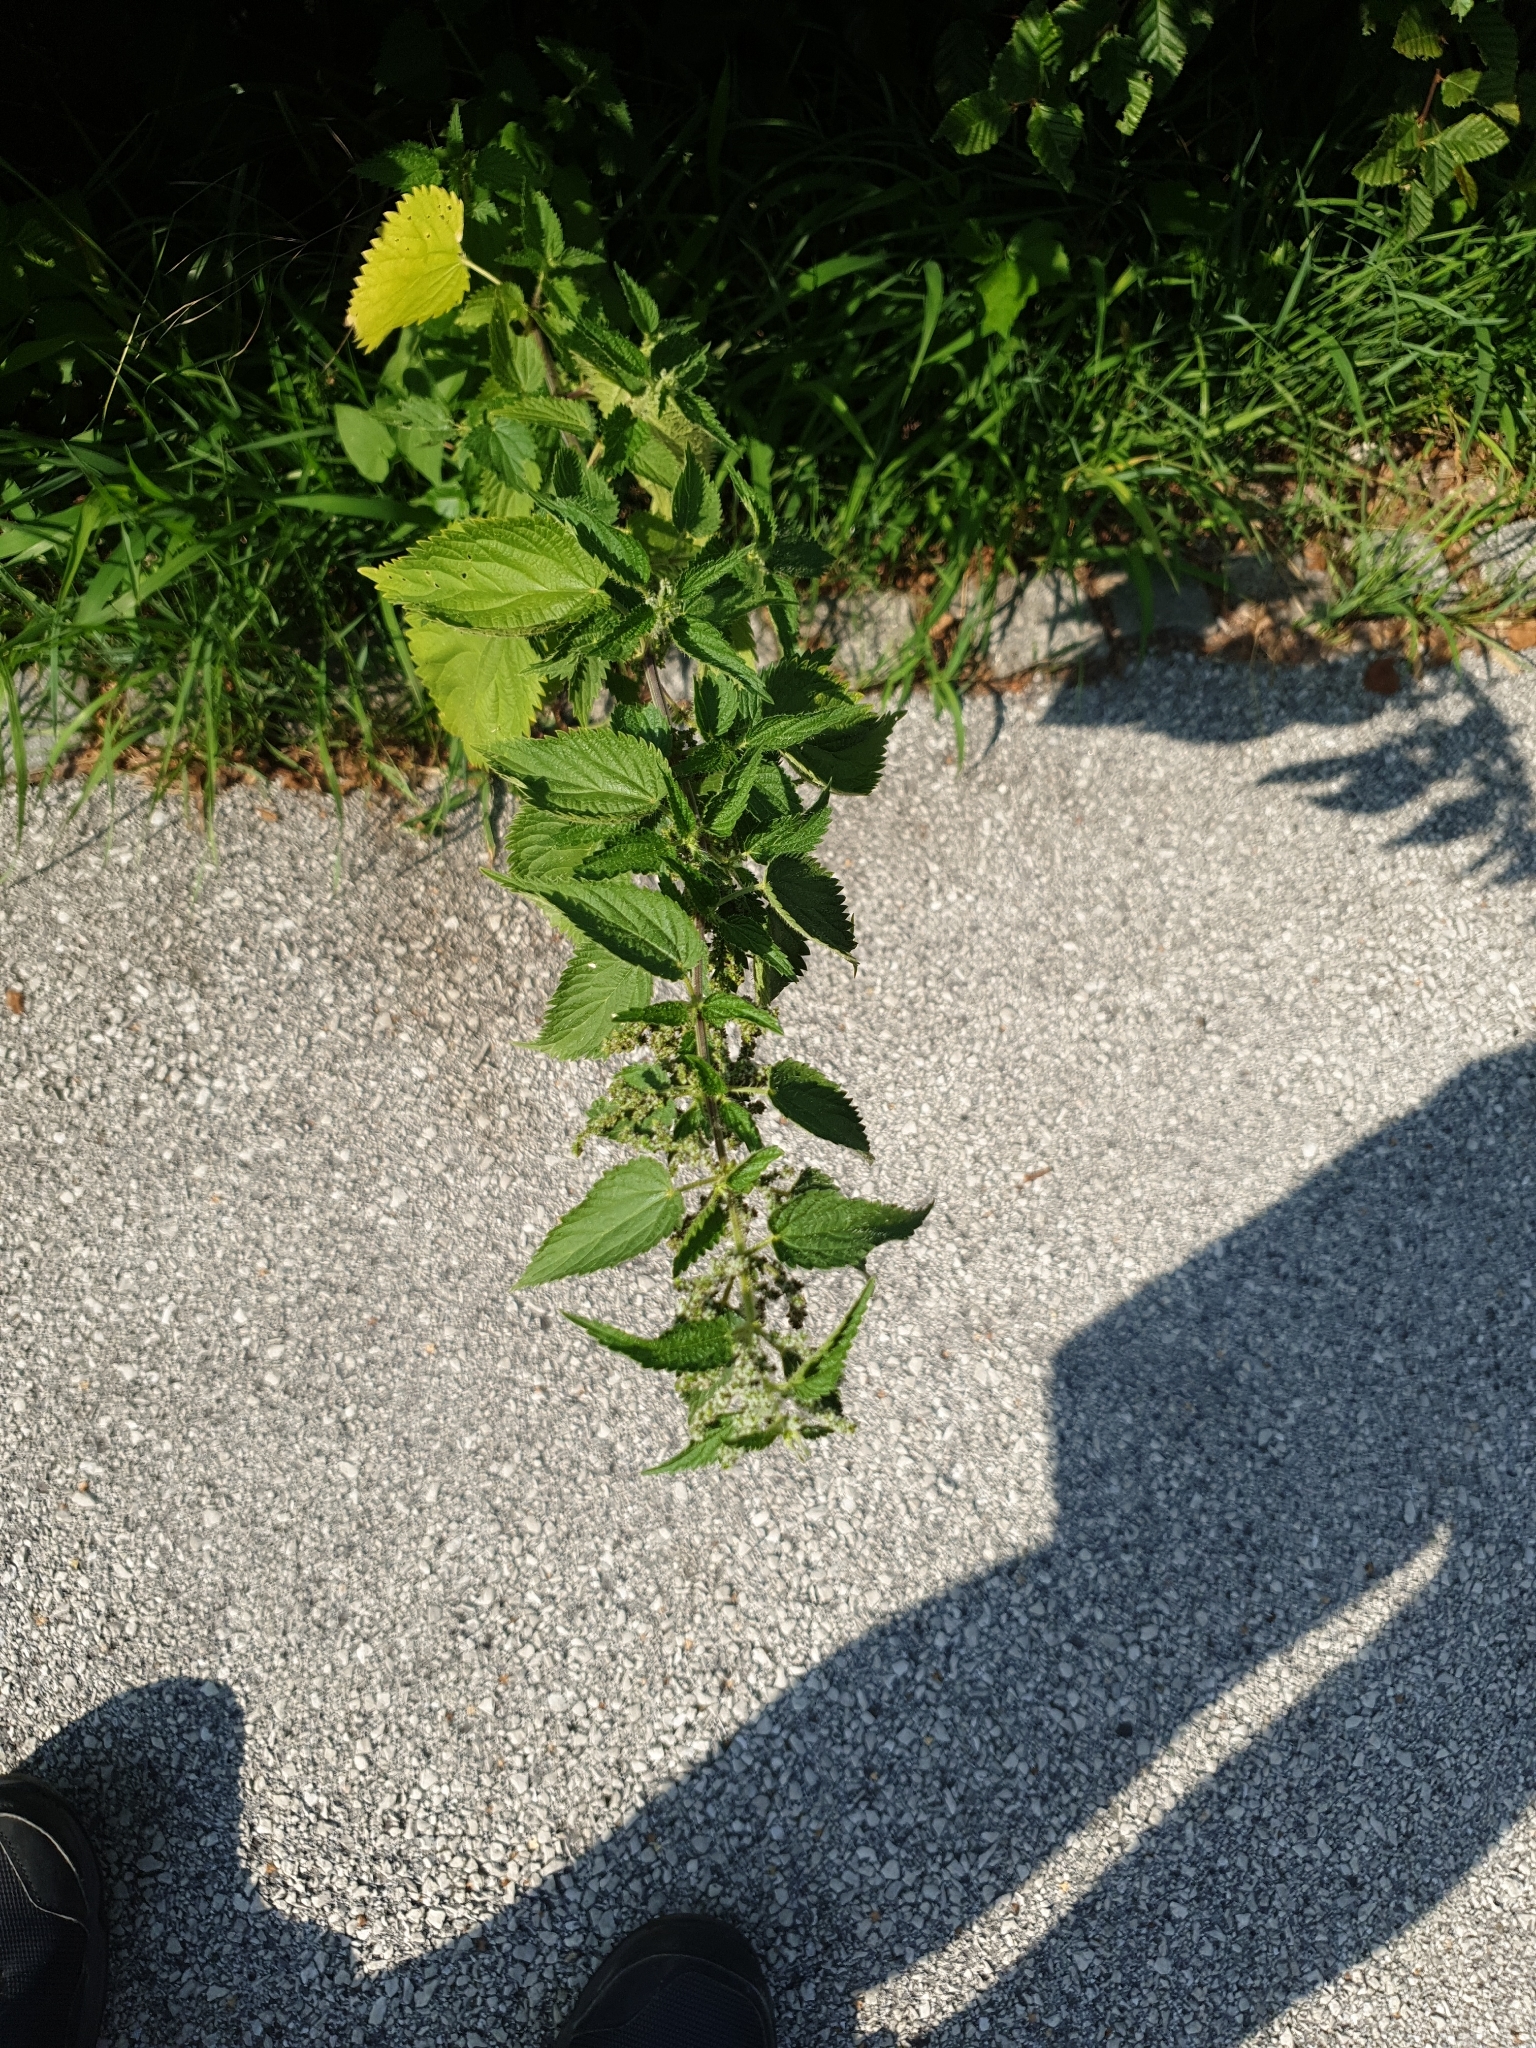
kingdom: Plantae
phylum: Tracheophyta
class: Magnoliopsida
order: Rosales
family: Urticaceae
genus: Urtica
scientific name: Urtica dioica
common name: Common nettle
